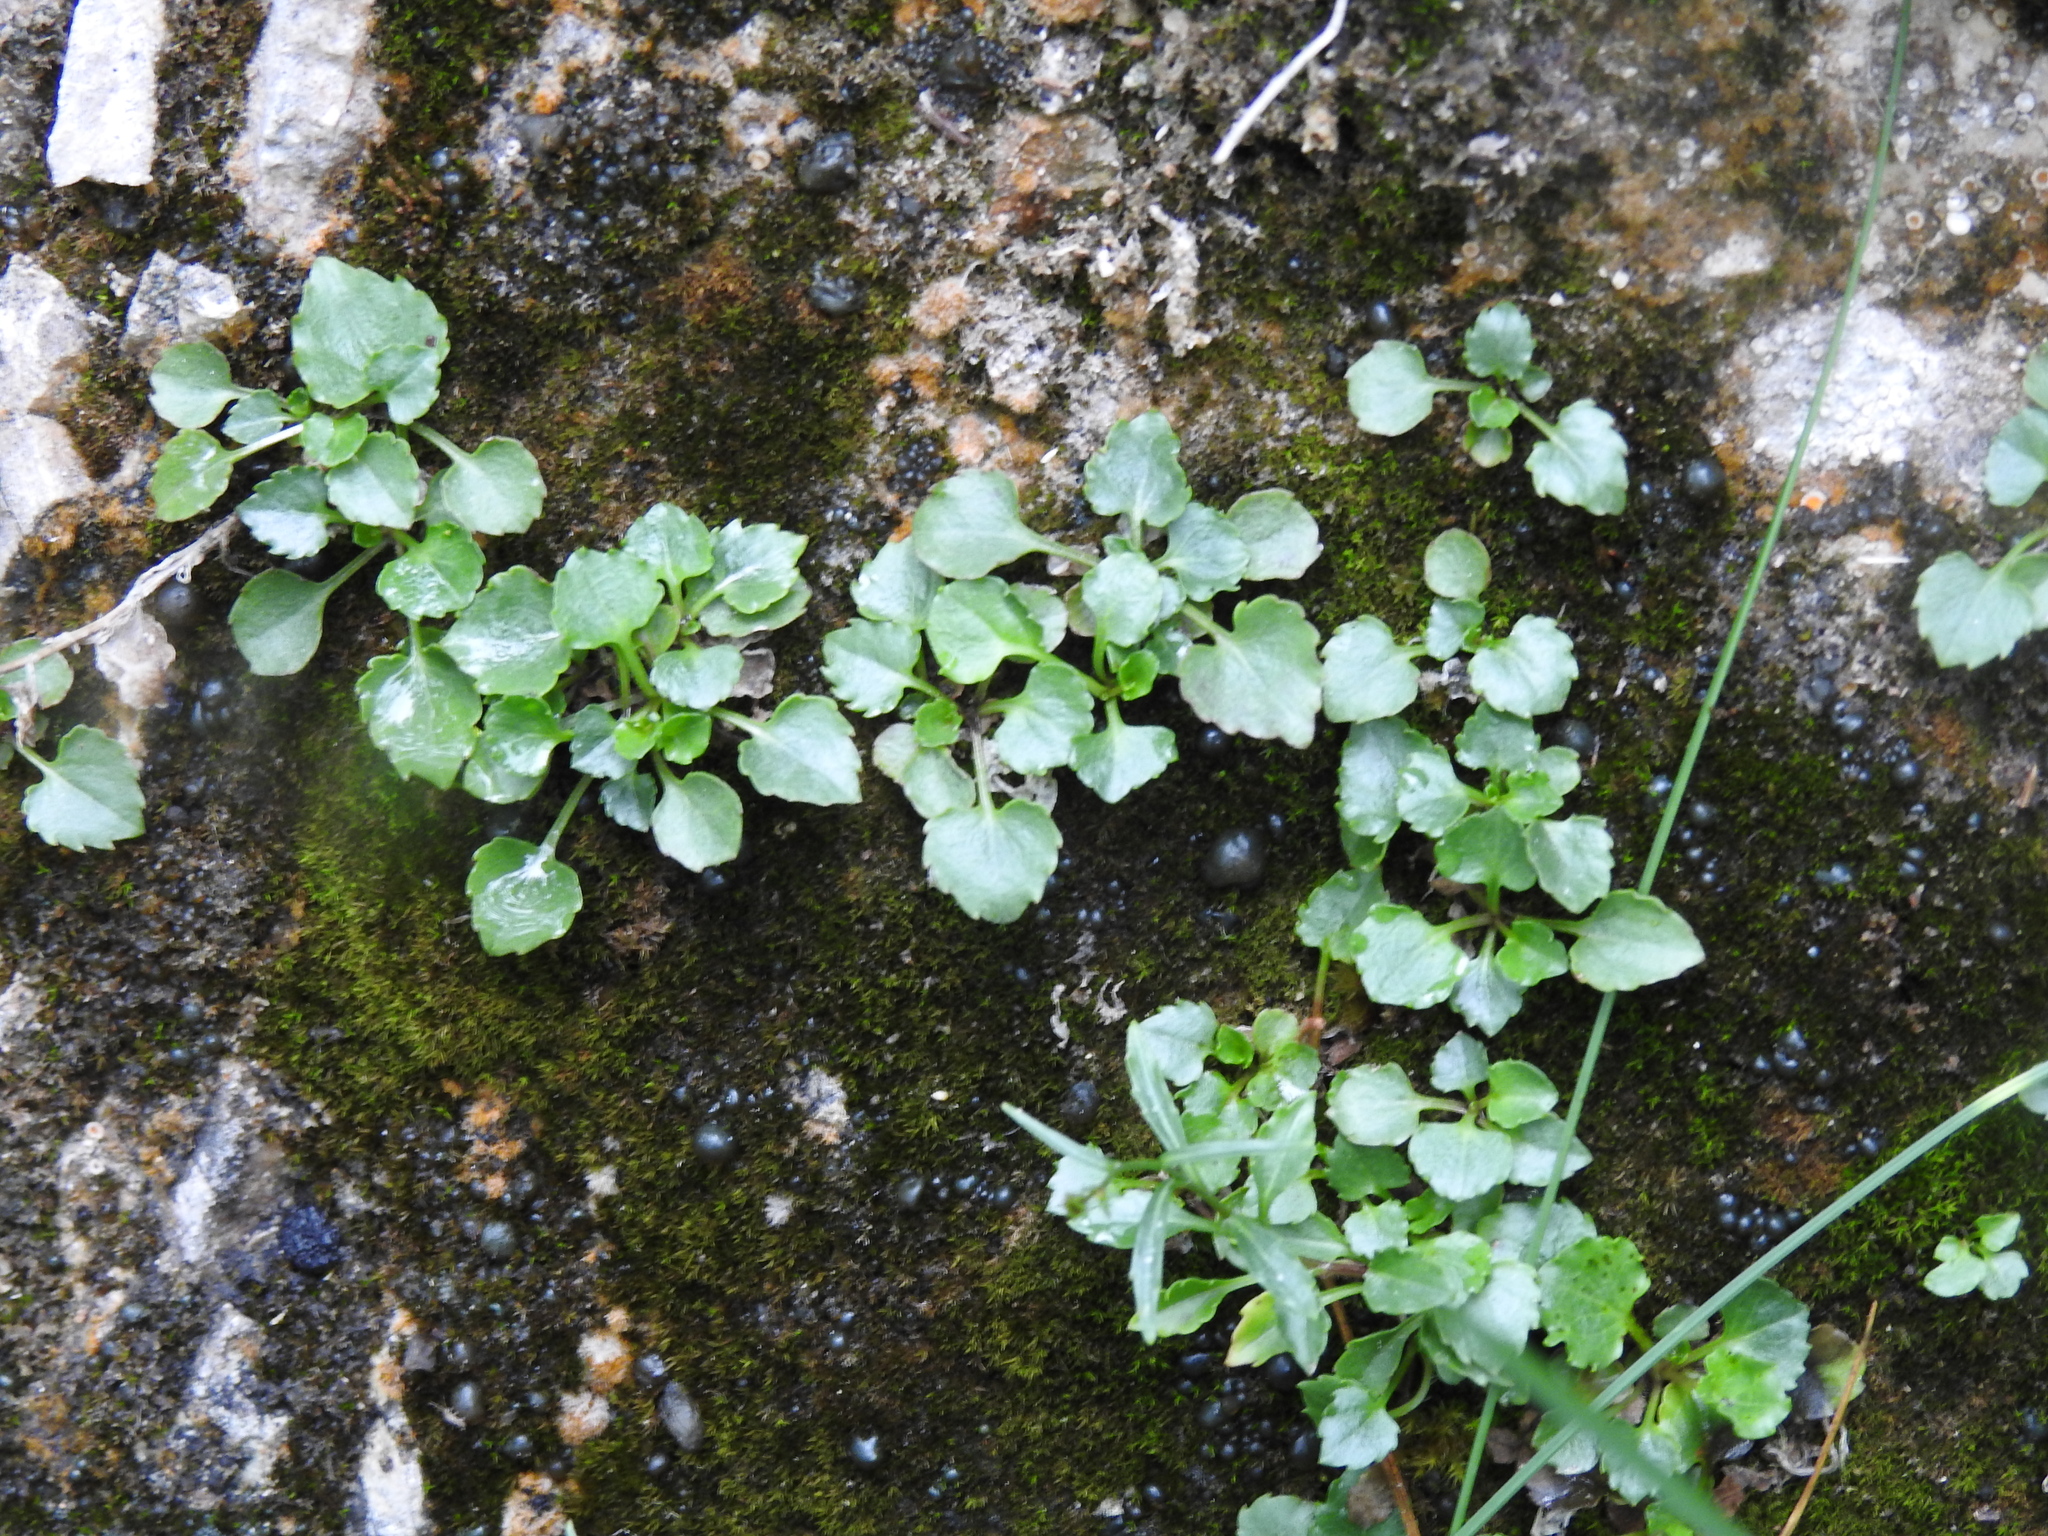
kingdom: Plantae
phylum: Tracheophyta
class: Magnoliopsida
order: Asterales
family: Campanulaceae
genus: Campanula
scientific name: Campanula cochleariifolia
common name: Fairies'-thimbles
